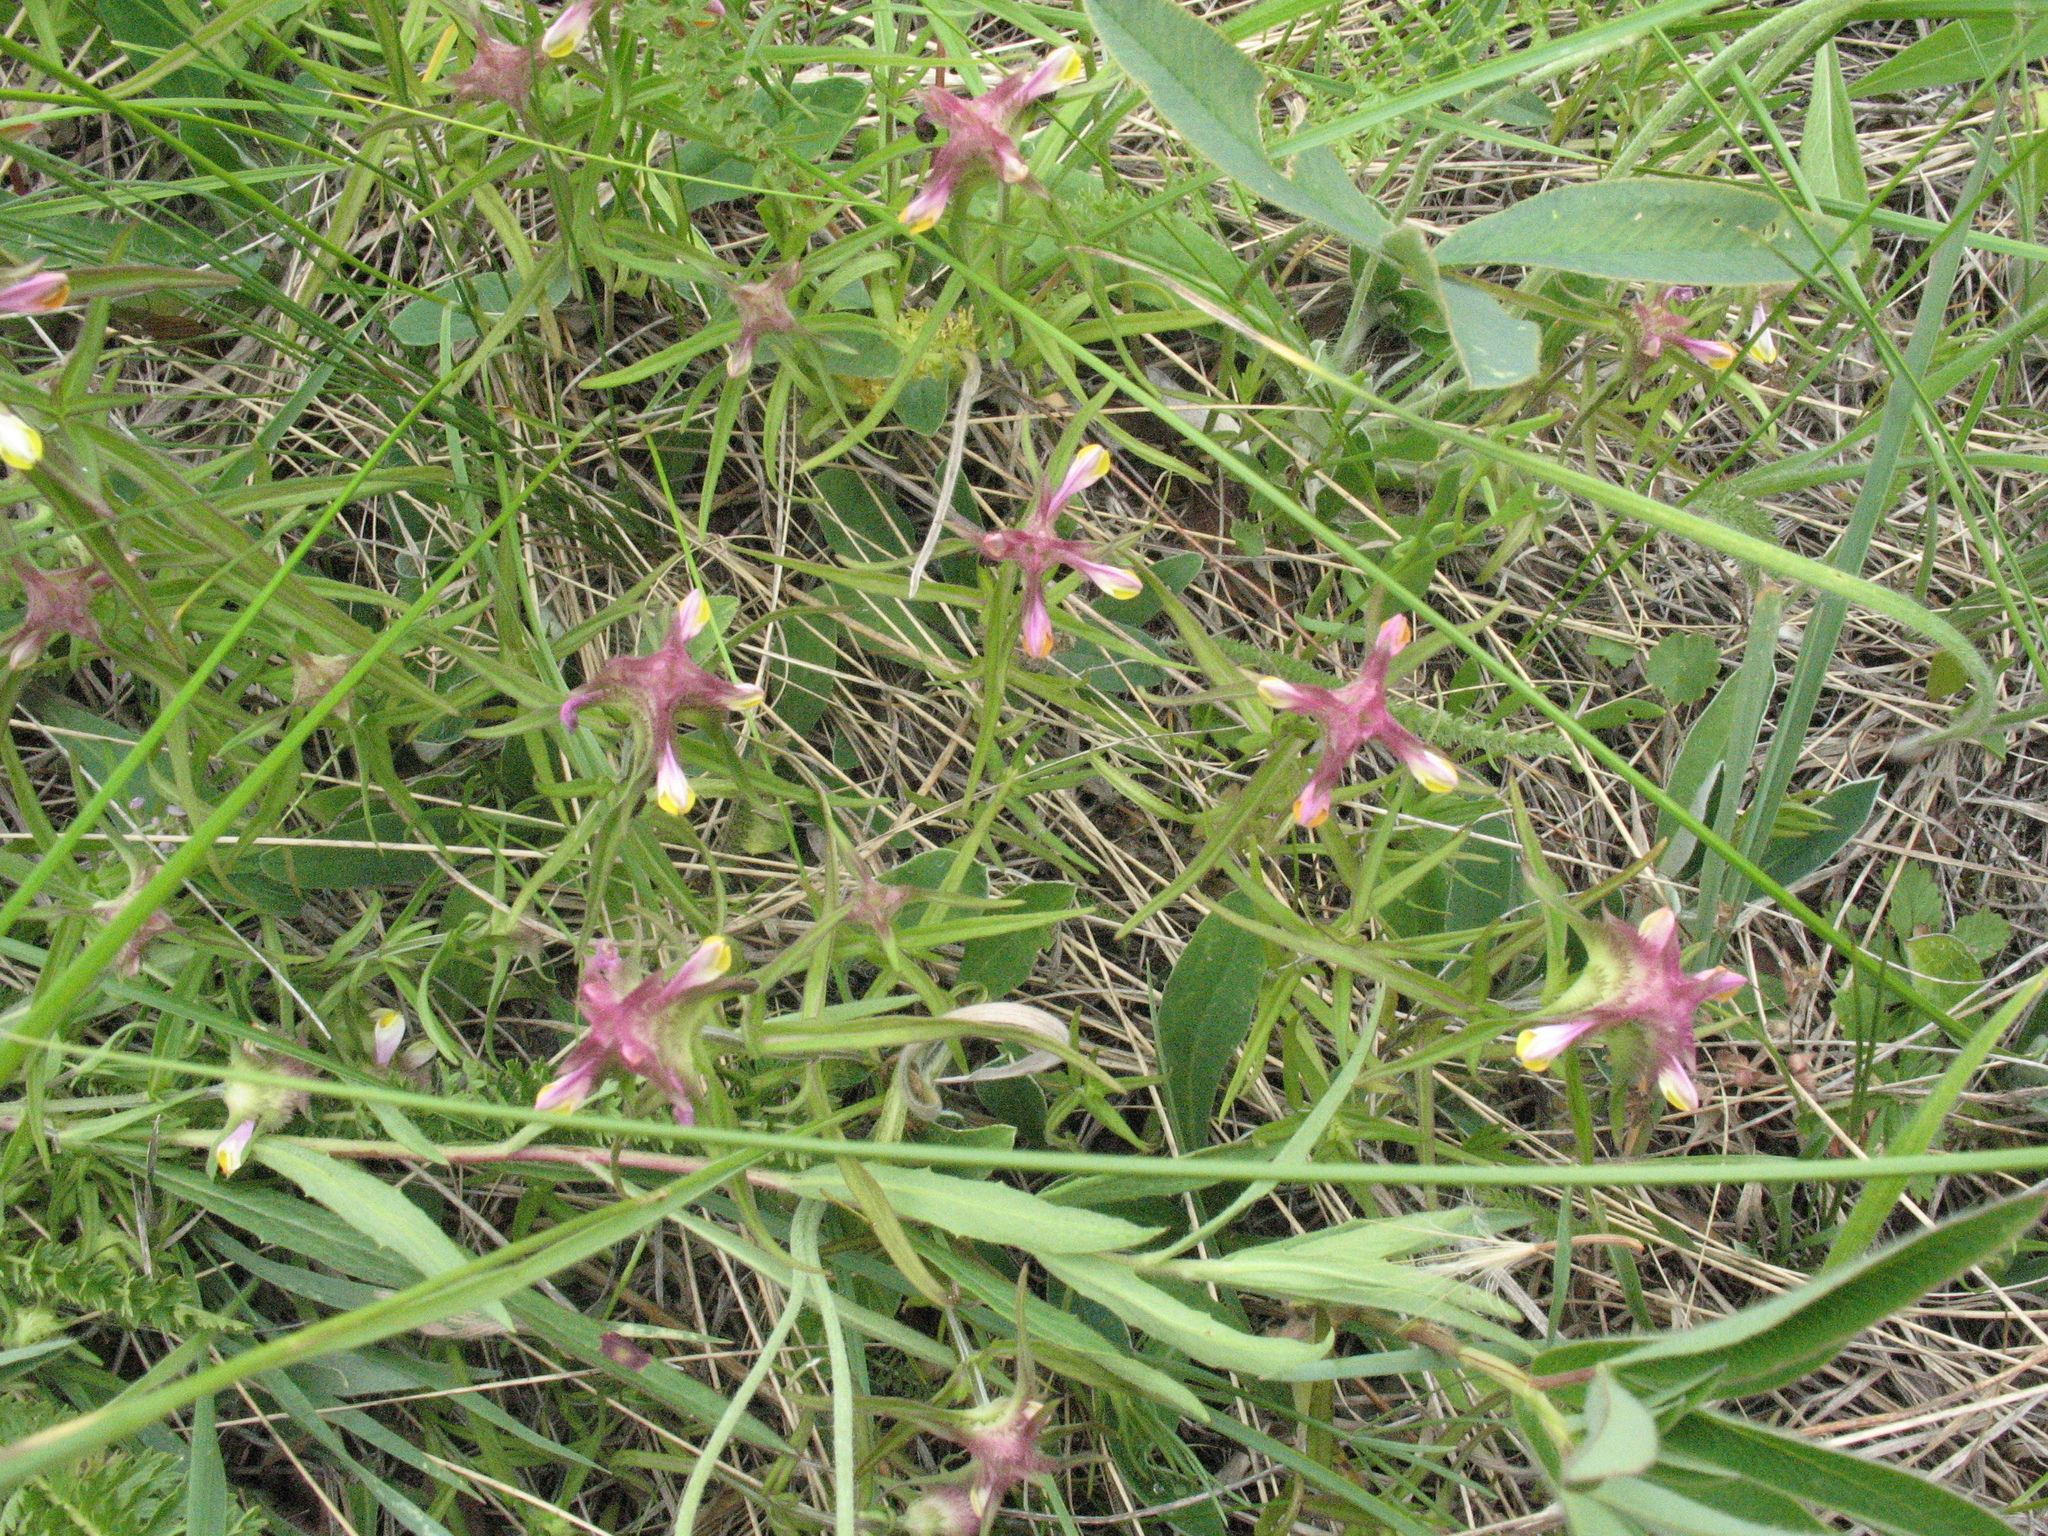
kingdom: Plantae
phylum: Tracheophyta
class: Magnoliopsida
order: Lamiales
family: Orobanchaceae
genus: Melampyrum
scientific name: Melampyrum cristatum
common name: Crested cow-wheat
